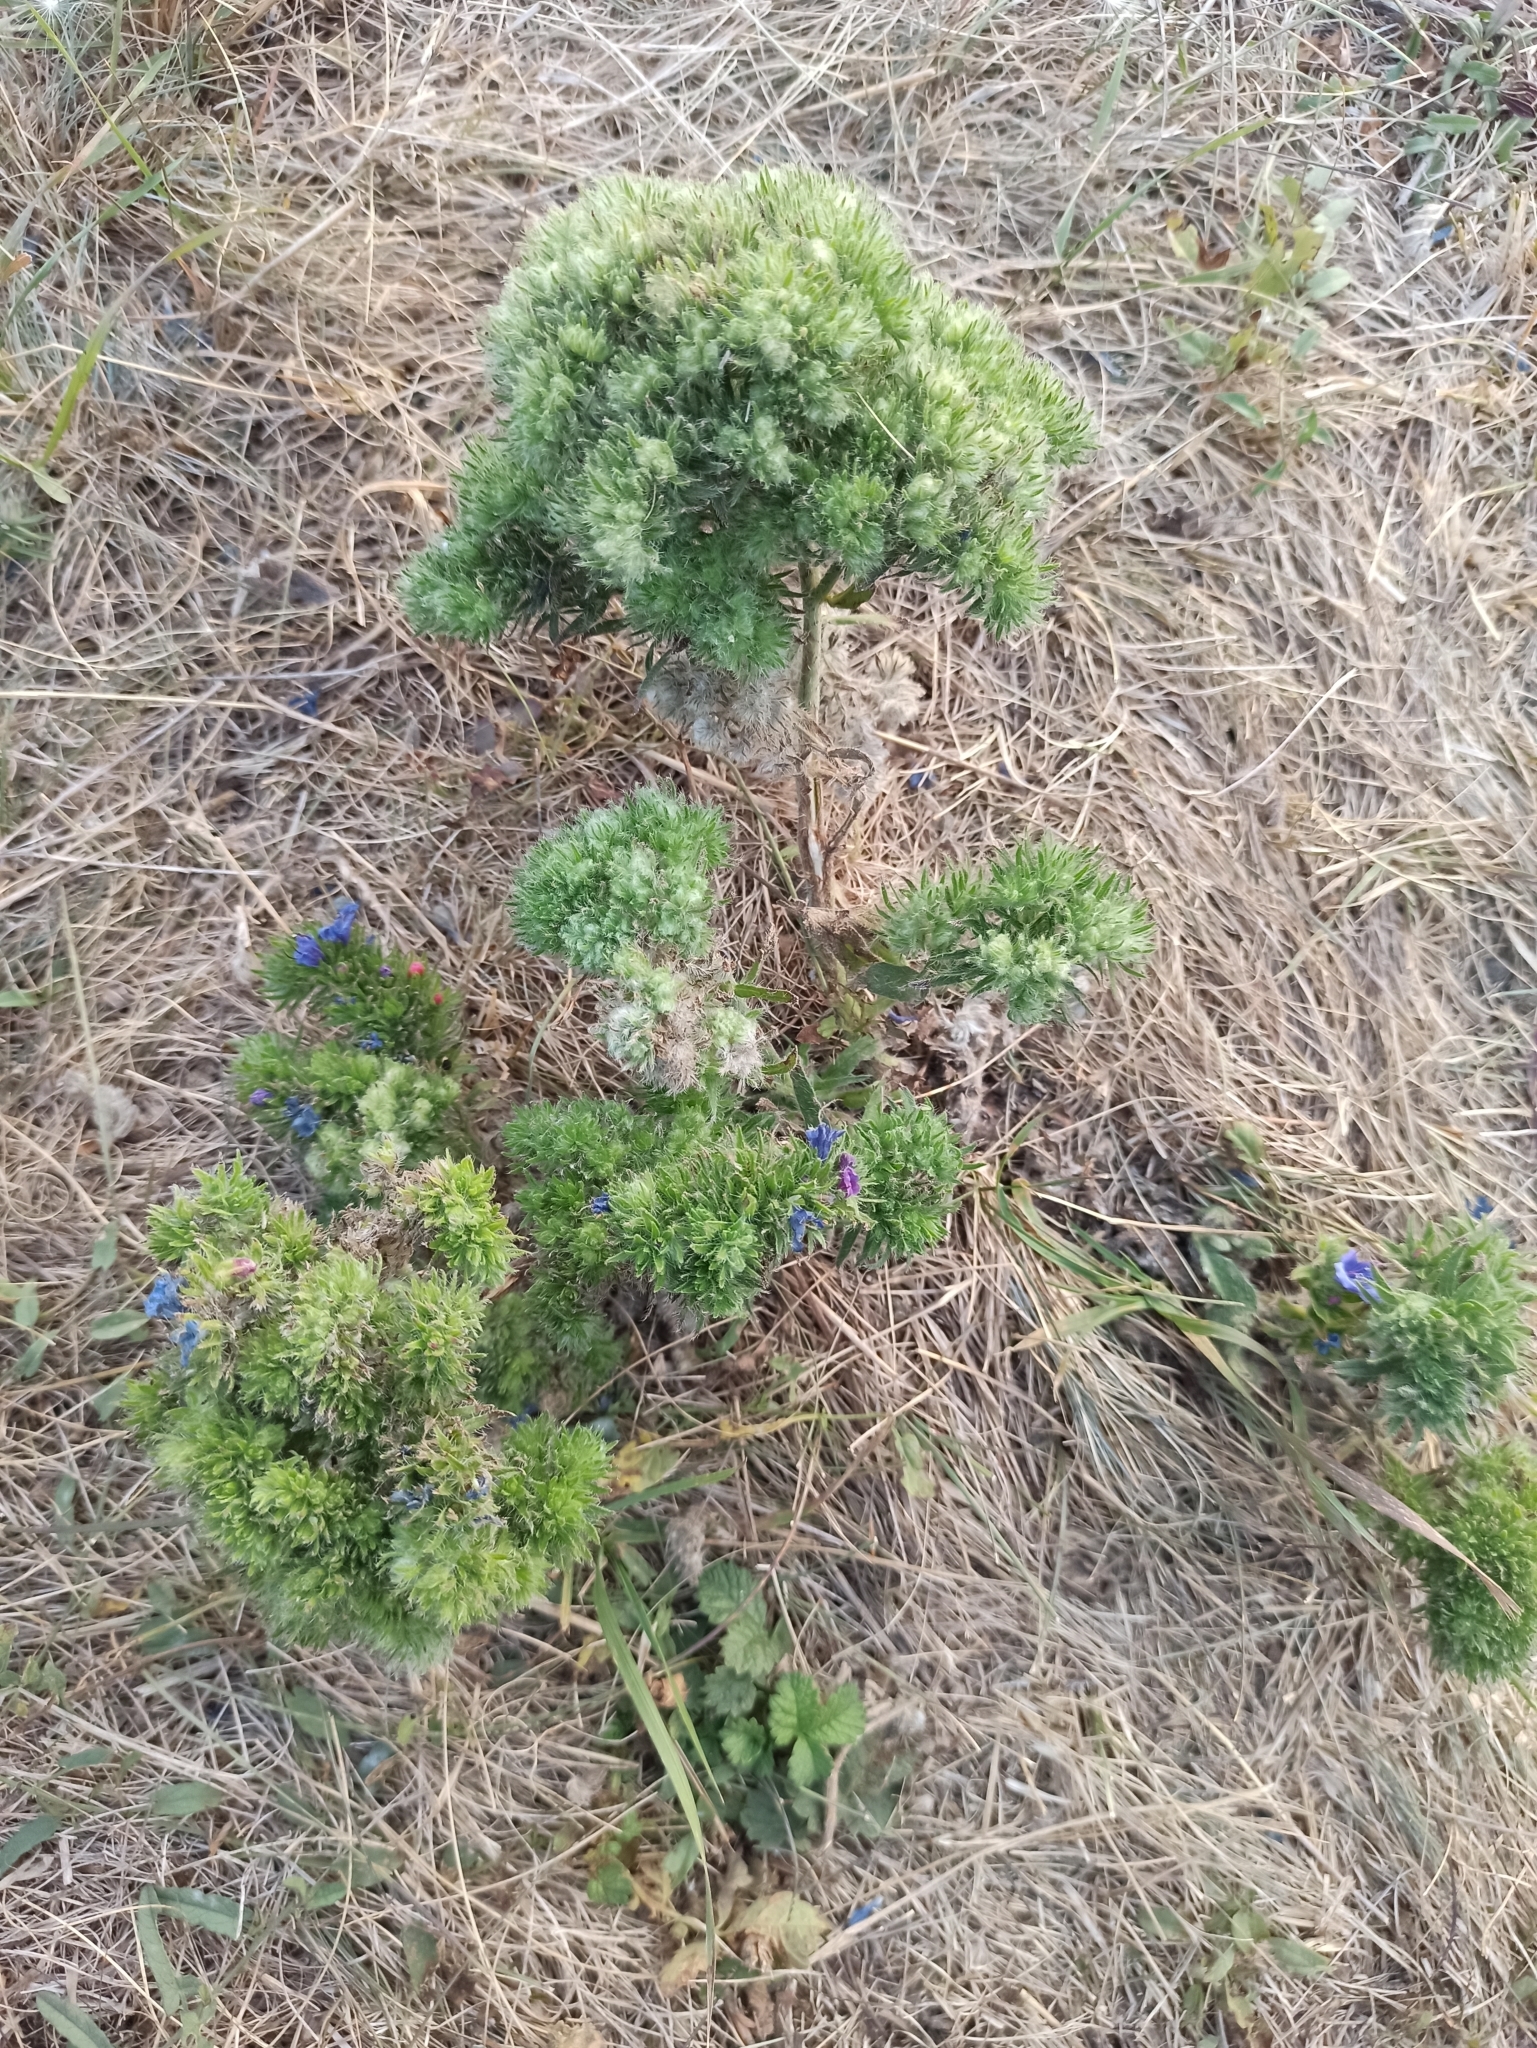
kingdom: Plantae
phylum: Tracheophyta
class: Magnoliopsida
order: Boraginales
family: Boraginaceae
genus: Echium
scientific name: Echium vulgare
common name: Common viper's bugloss
